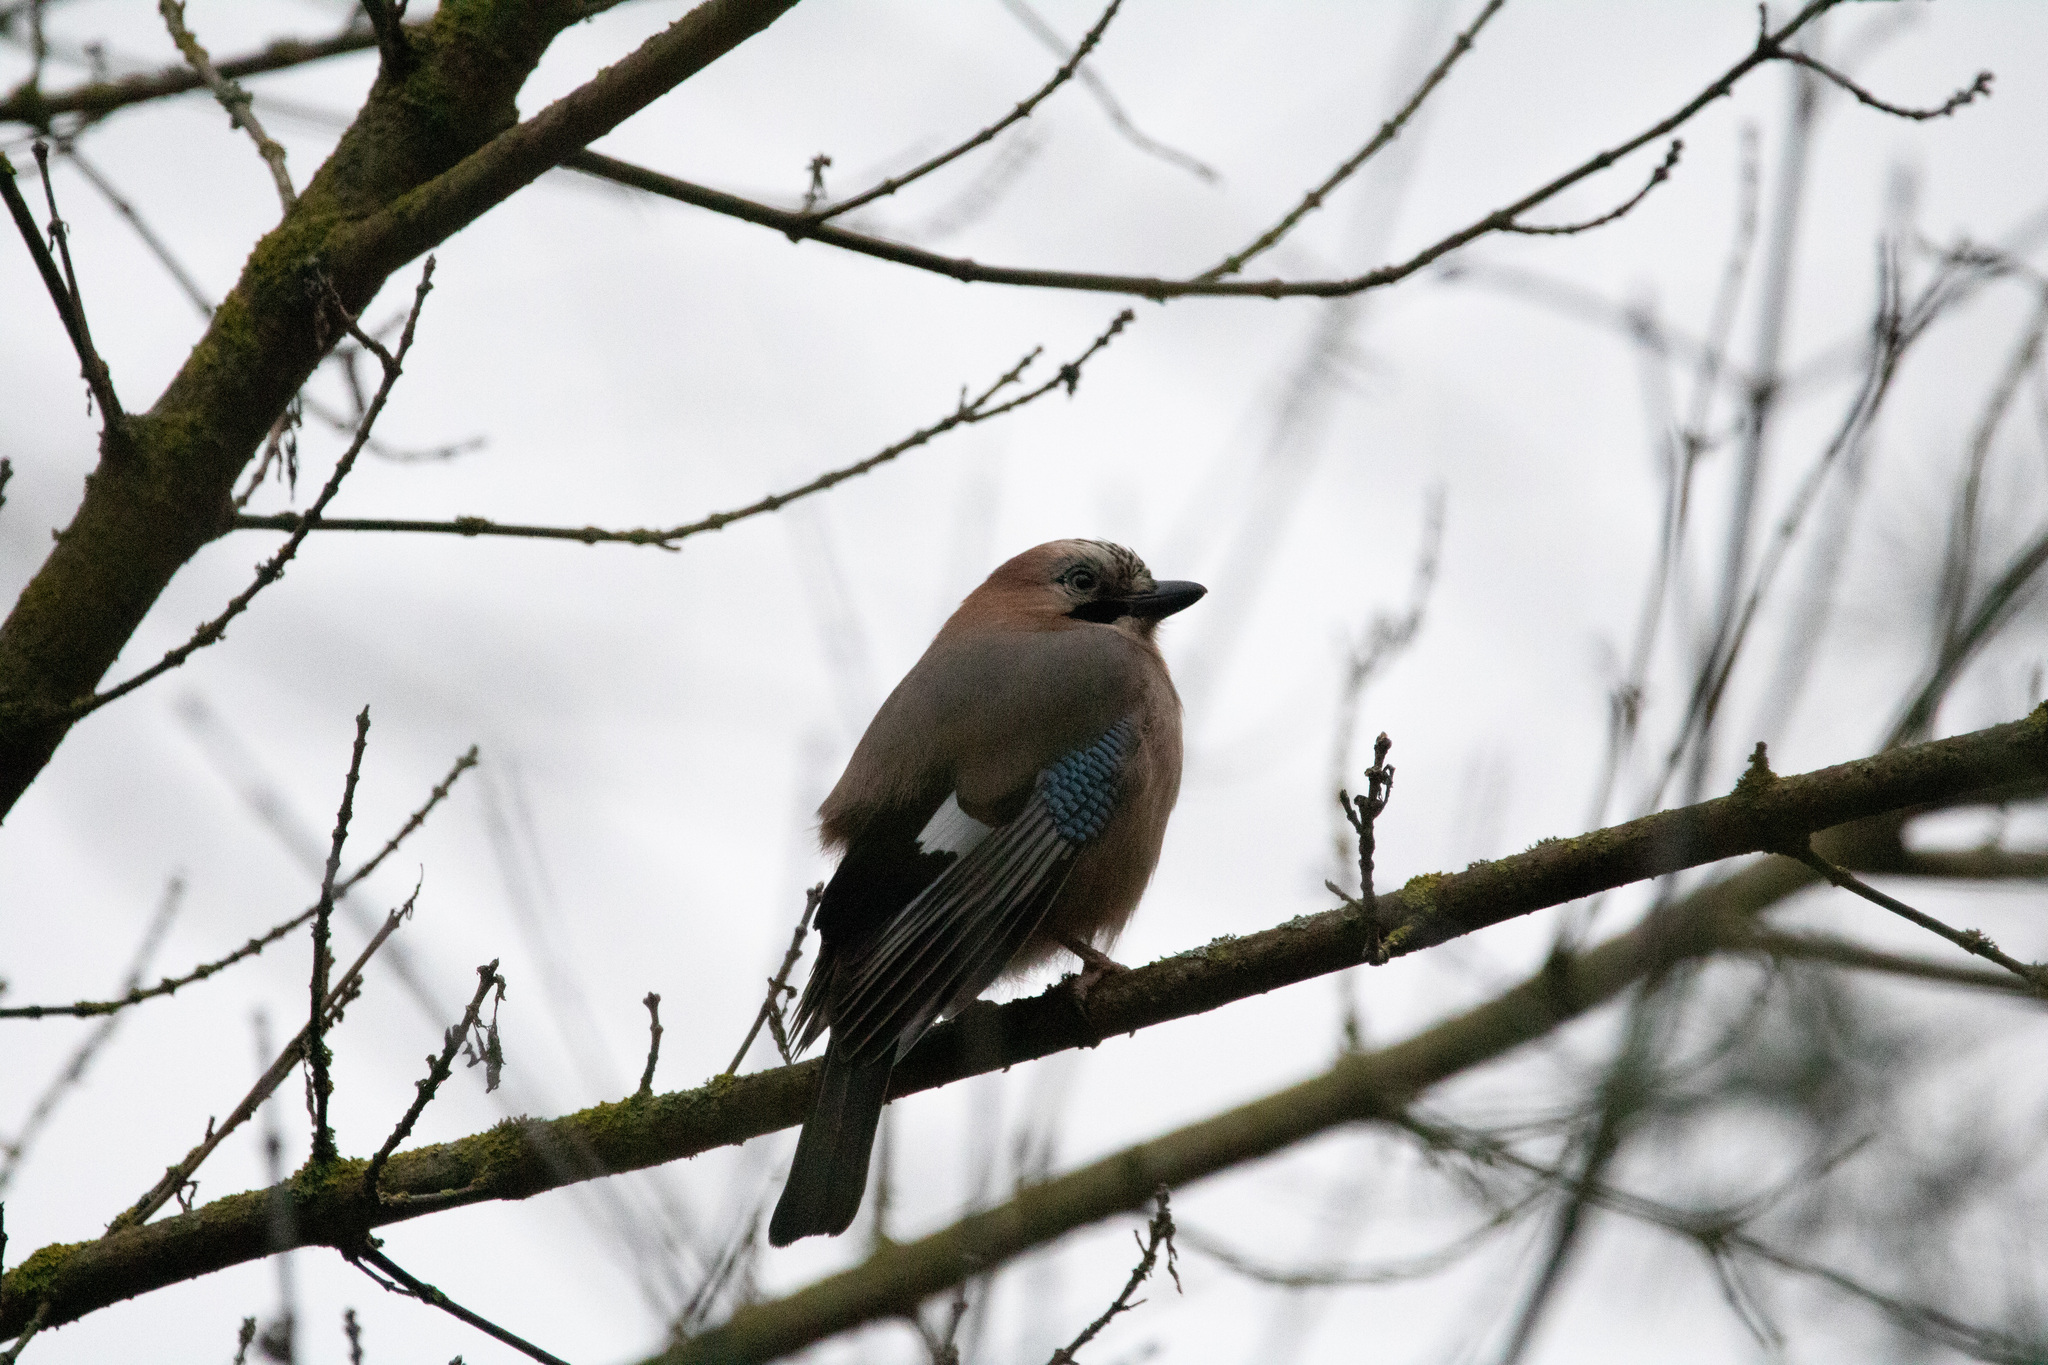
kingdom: Animalia
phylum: Chordata
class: Aves
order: Passeriformes
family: Corvidae
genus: Garrulus
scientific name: Garrulus glandarius
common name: Eurasian jay
